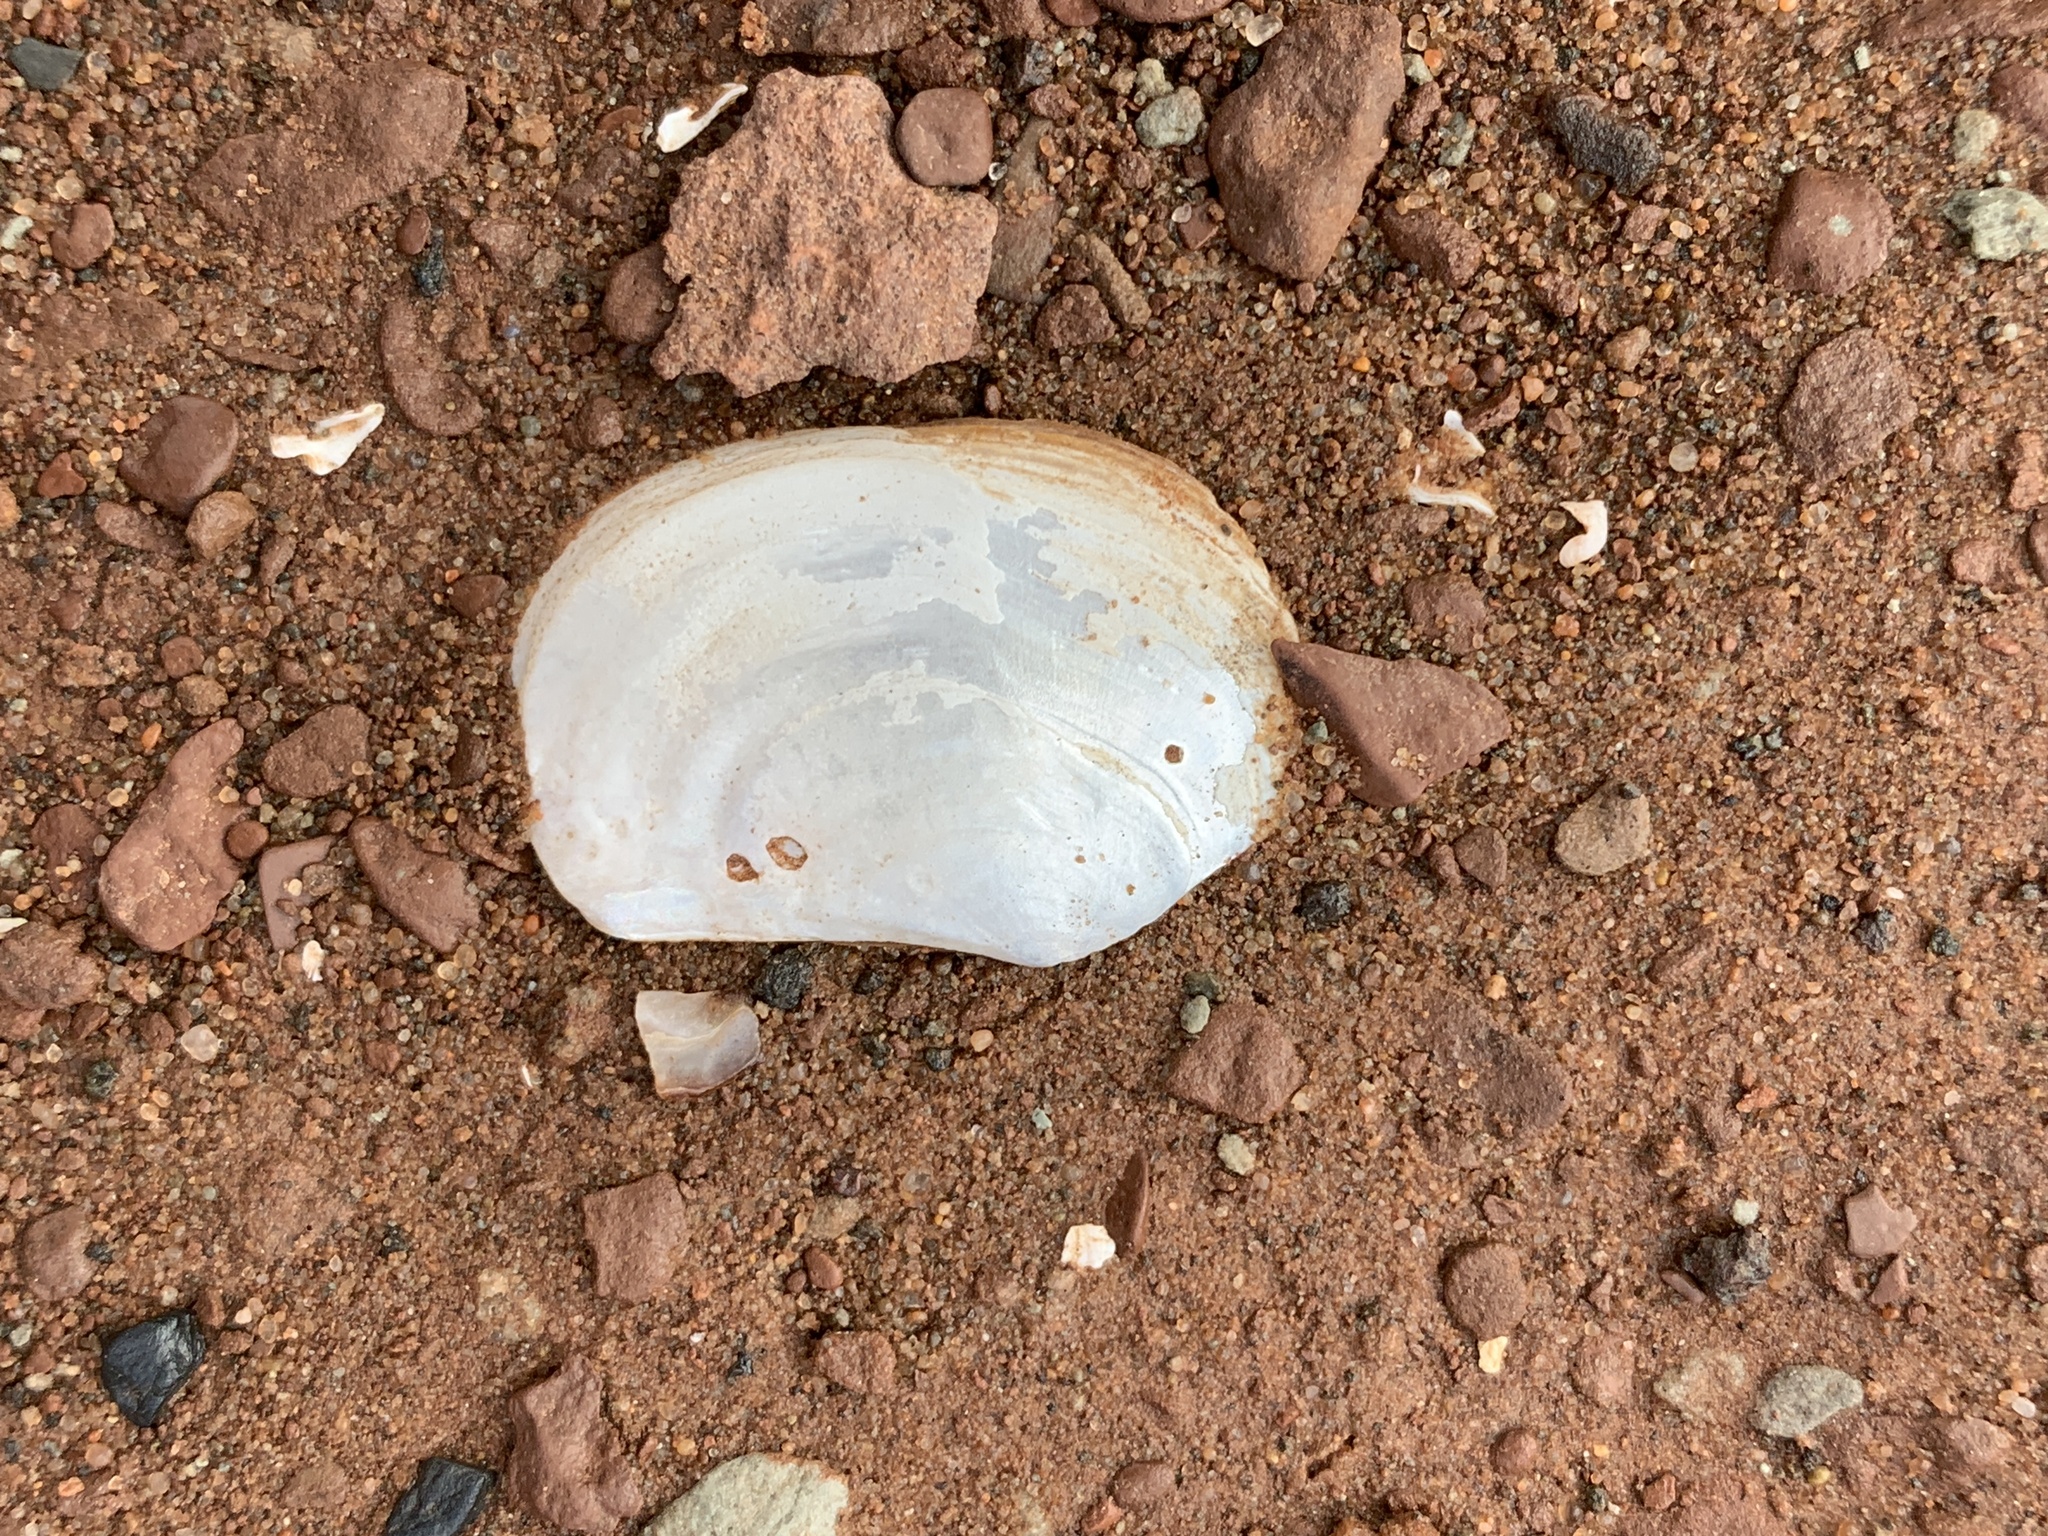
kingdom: Animalia
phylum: Mollusca
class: Bivalvia
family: Pandoridae
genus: Pandora
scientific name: Pandora gouldiana
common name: Rounded pandora
